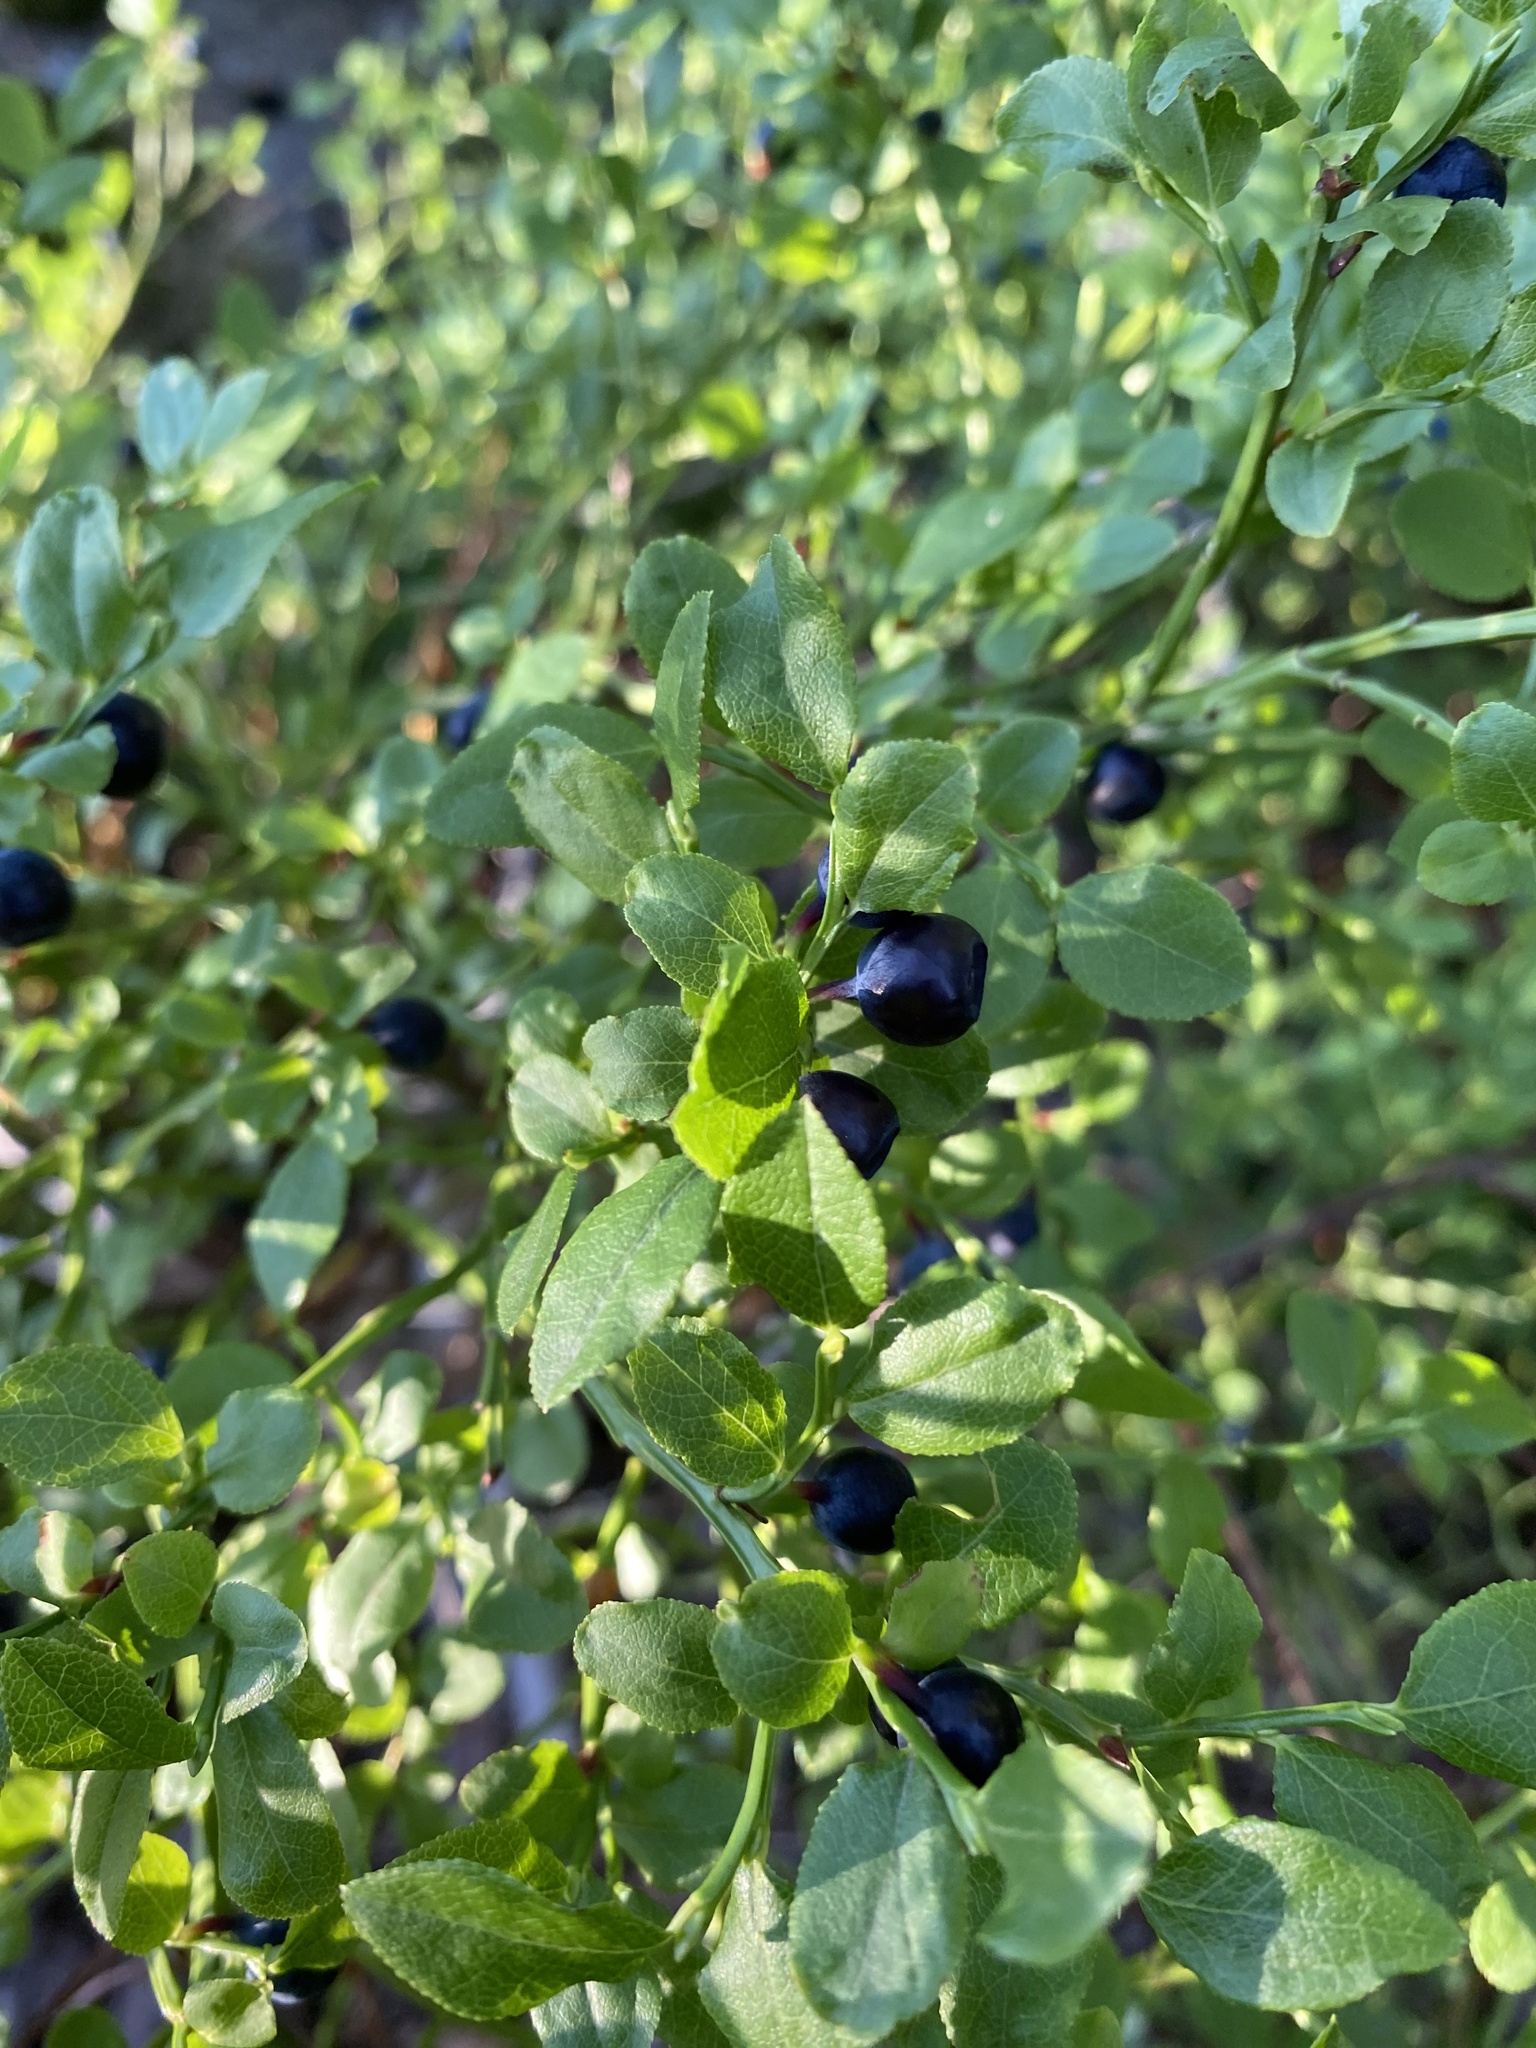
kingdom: Plantae
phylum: Tracheophyta
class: Magnoliopsida
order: Ericales
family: Ericaceae
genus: Vaccinium
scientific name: Vaccinium myrtillus
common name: Bilberry
